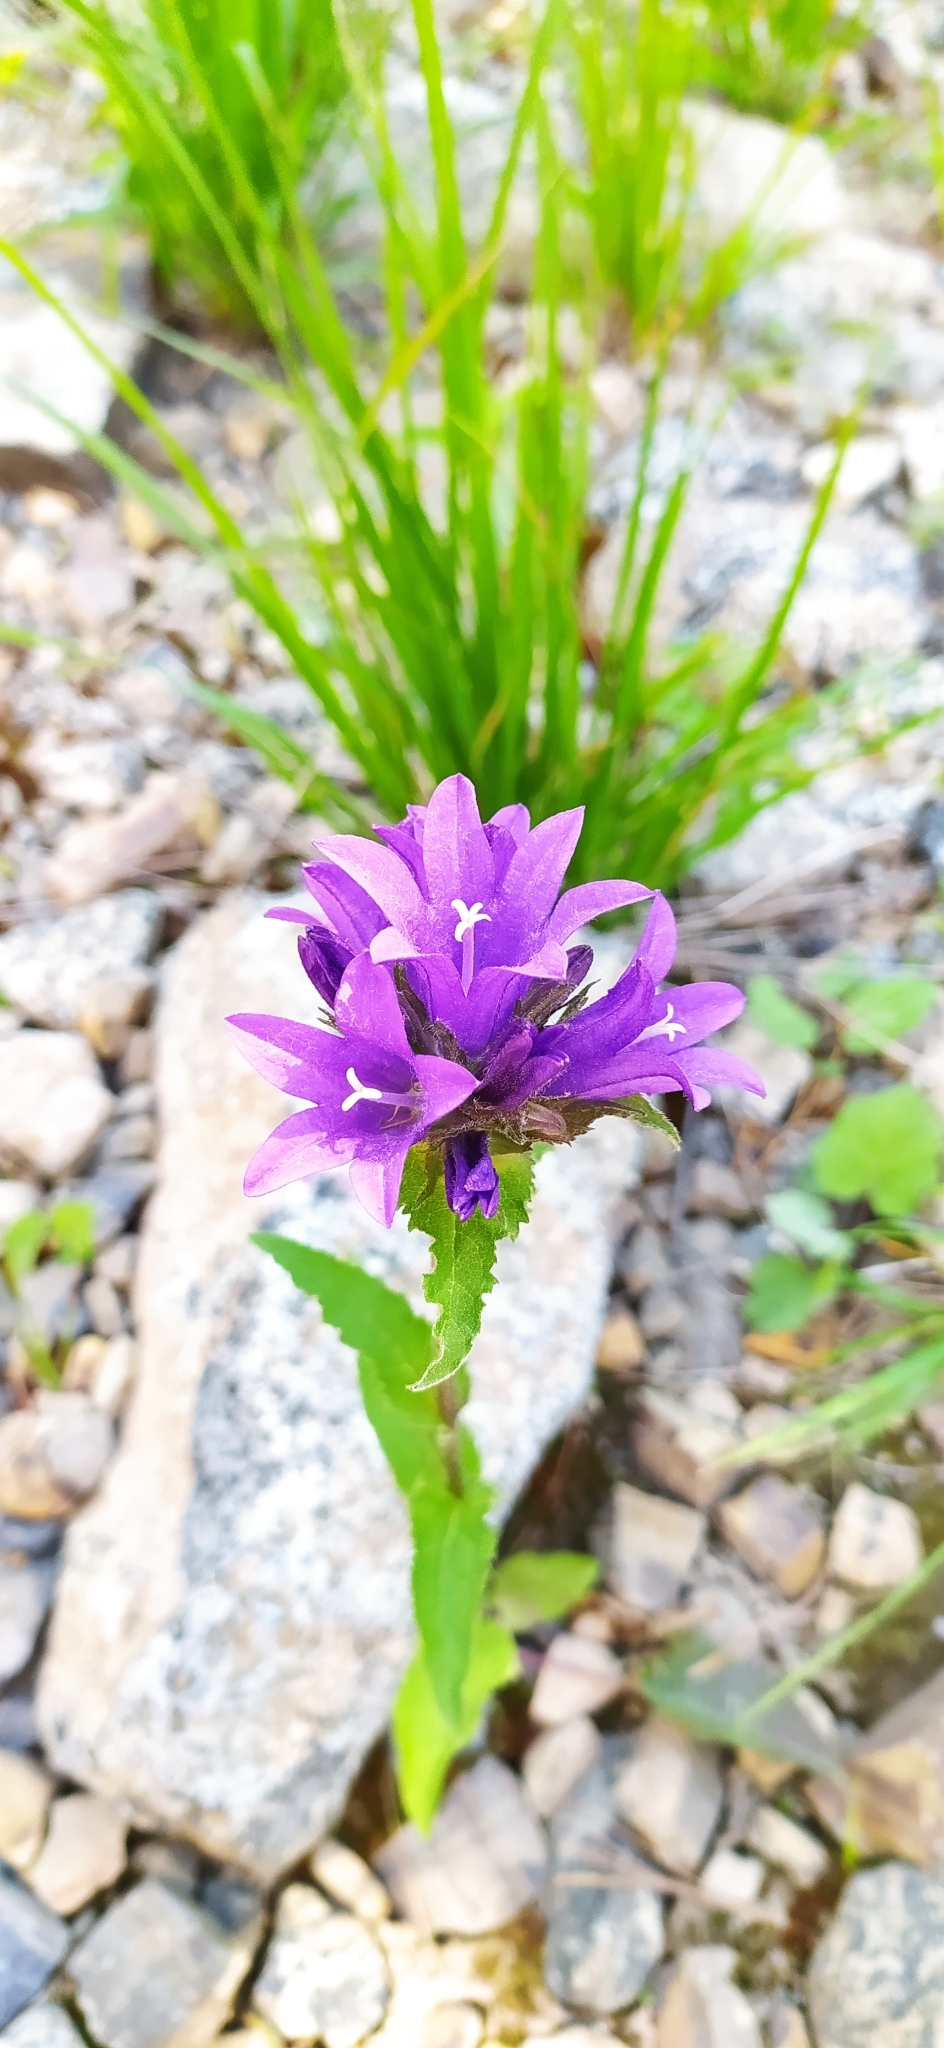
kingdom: Plantae
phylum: Tracheophyta
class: Magnoliopsida
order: Asterales
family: Campanulaceae
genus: Campanula
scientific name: Campanula glomerata
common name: Clustered bellflower
